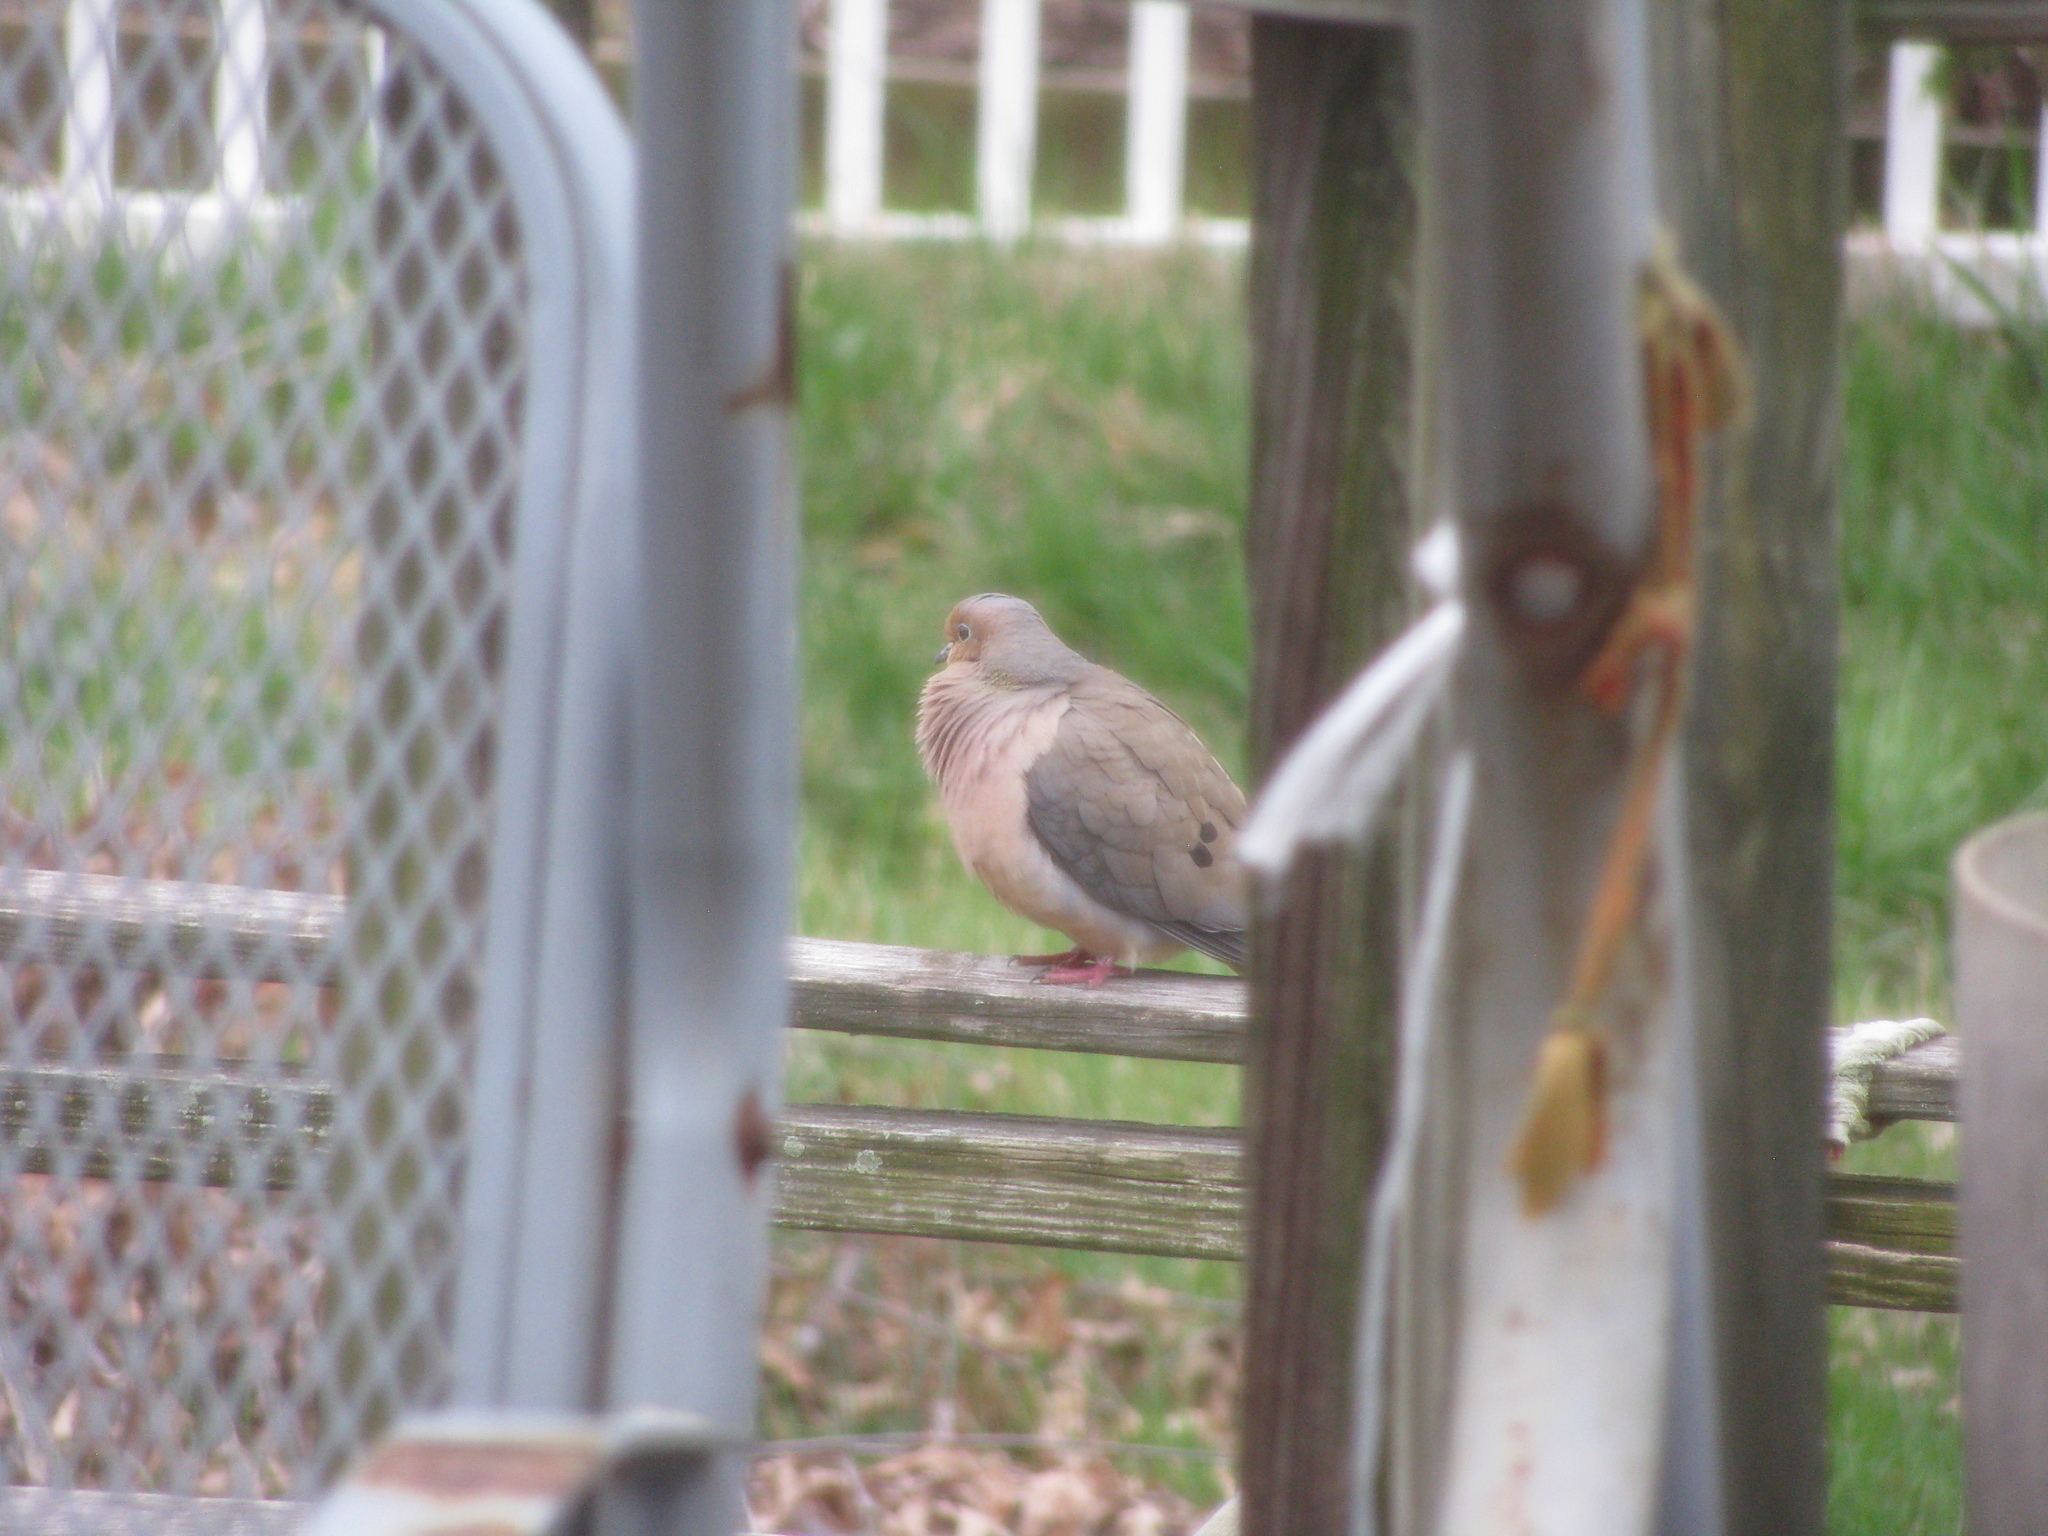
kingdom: Animalia
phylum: Chordata
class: Aves
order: Columbiformes
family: Columbidae
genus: Zenaida
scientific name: Zenaida macroura
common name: Mourning dove
